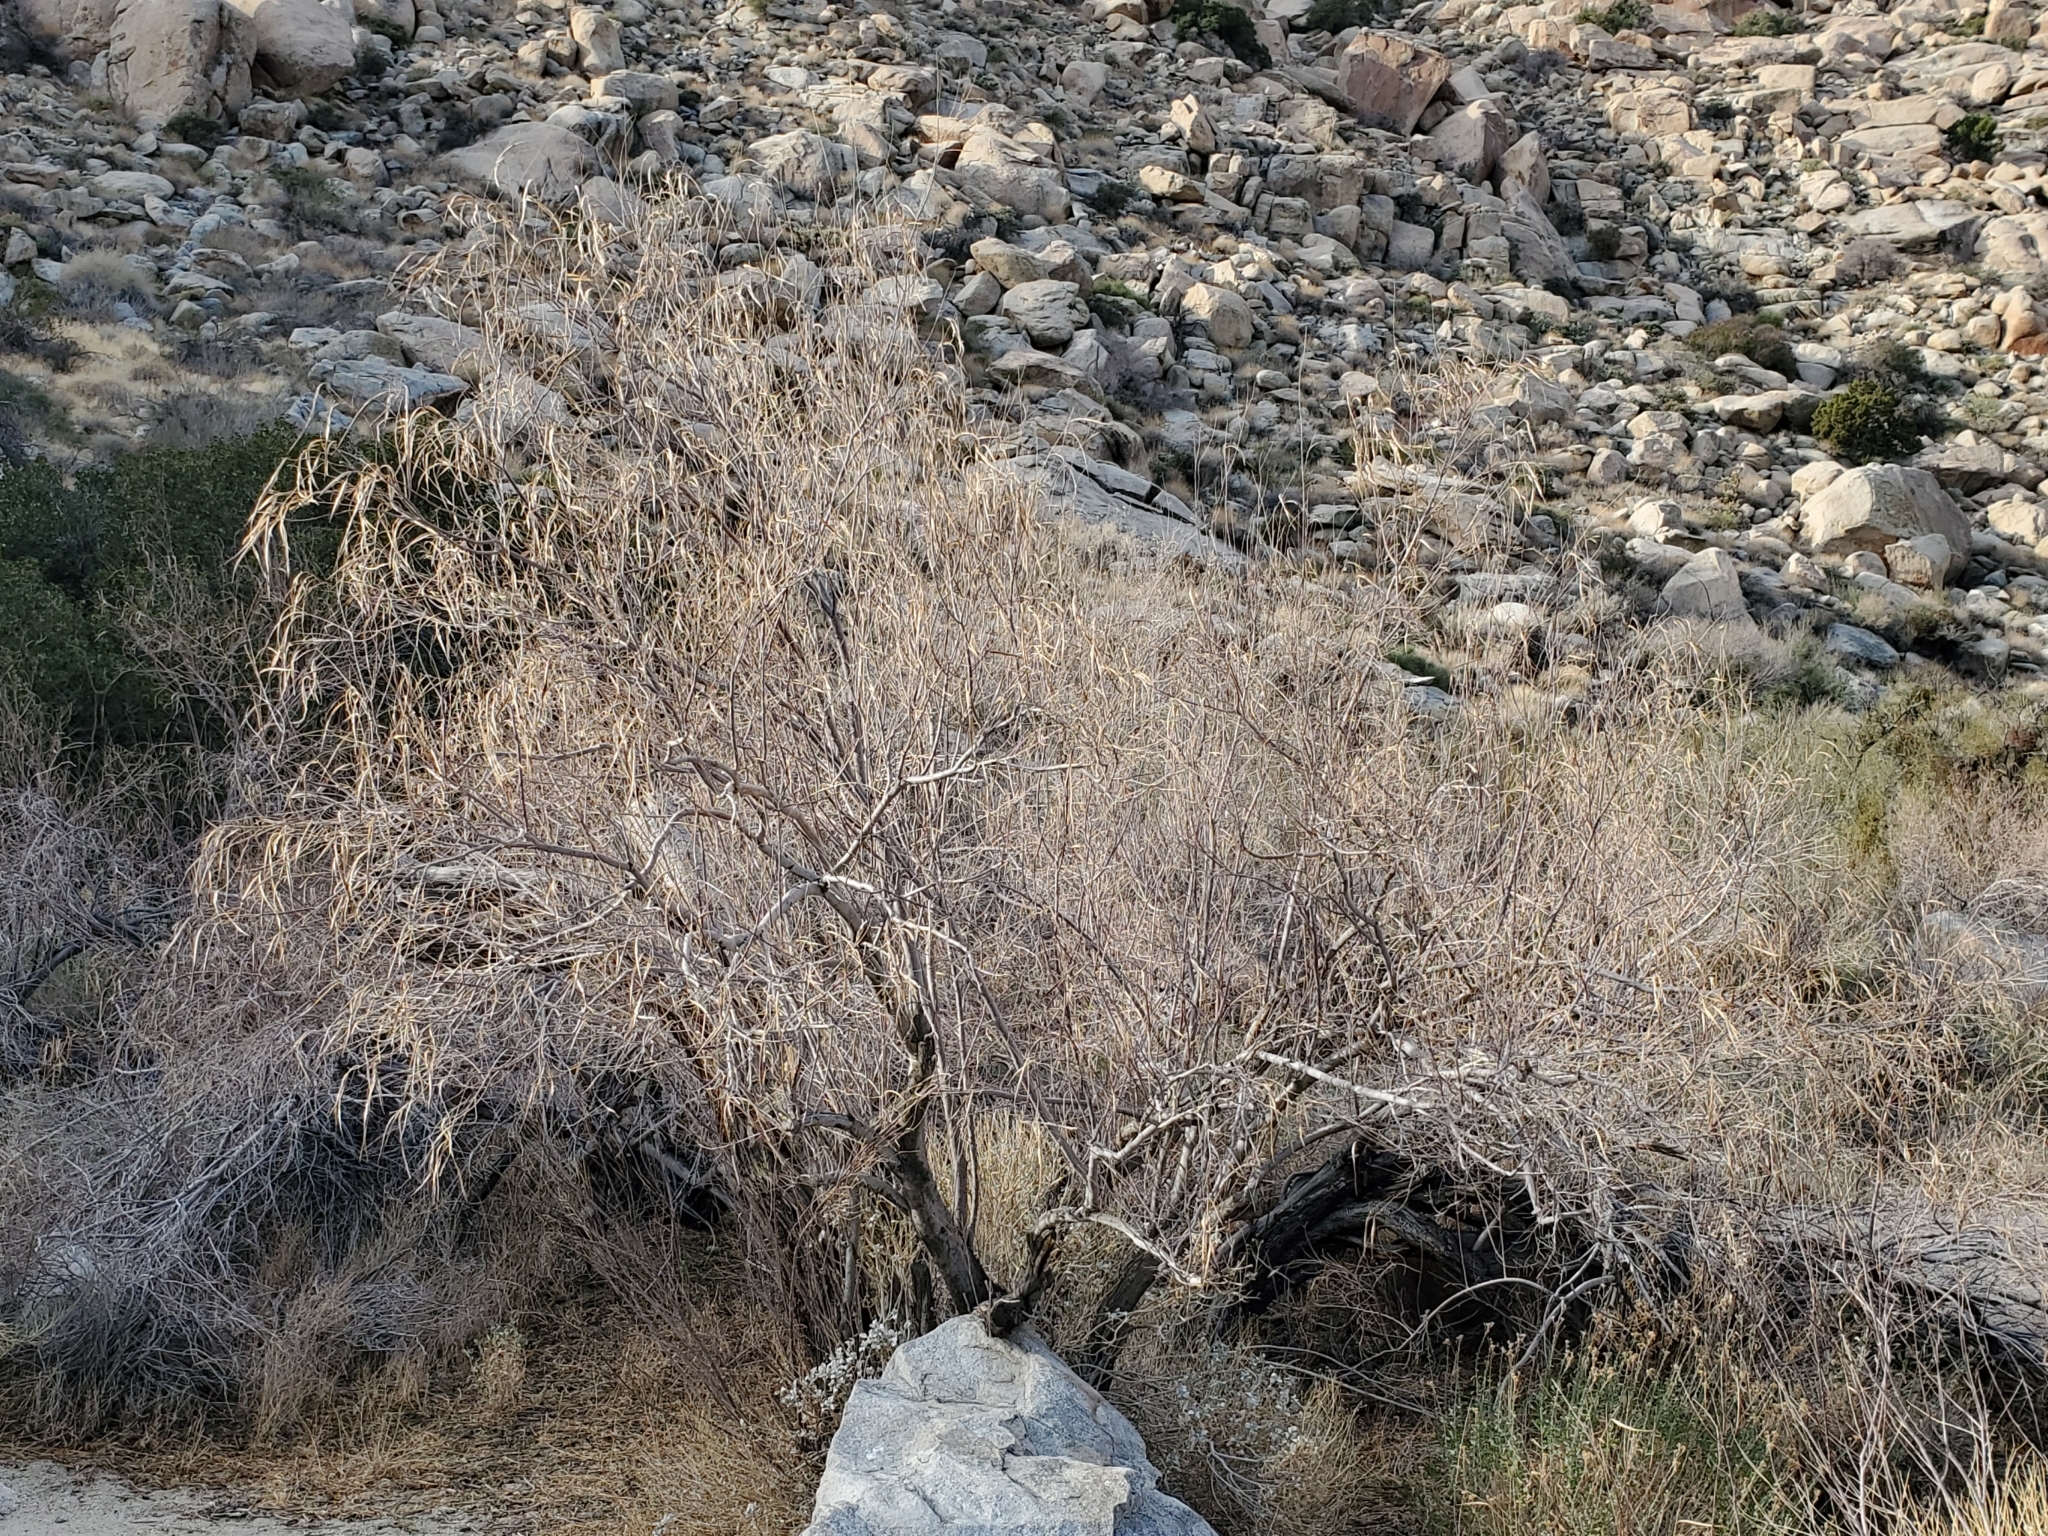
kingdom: Plantae
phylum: Tracheophyta
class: Magnoliopsida
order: Lamiales
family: Bignoniaceae
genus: Chilopsis
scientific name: Chilopsis linearis
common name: Desert-willow
